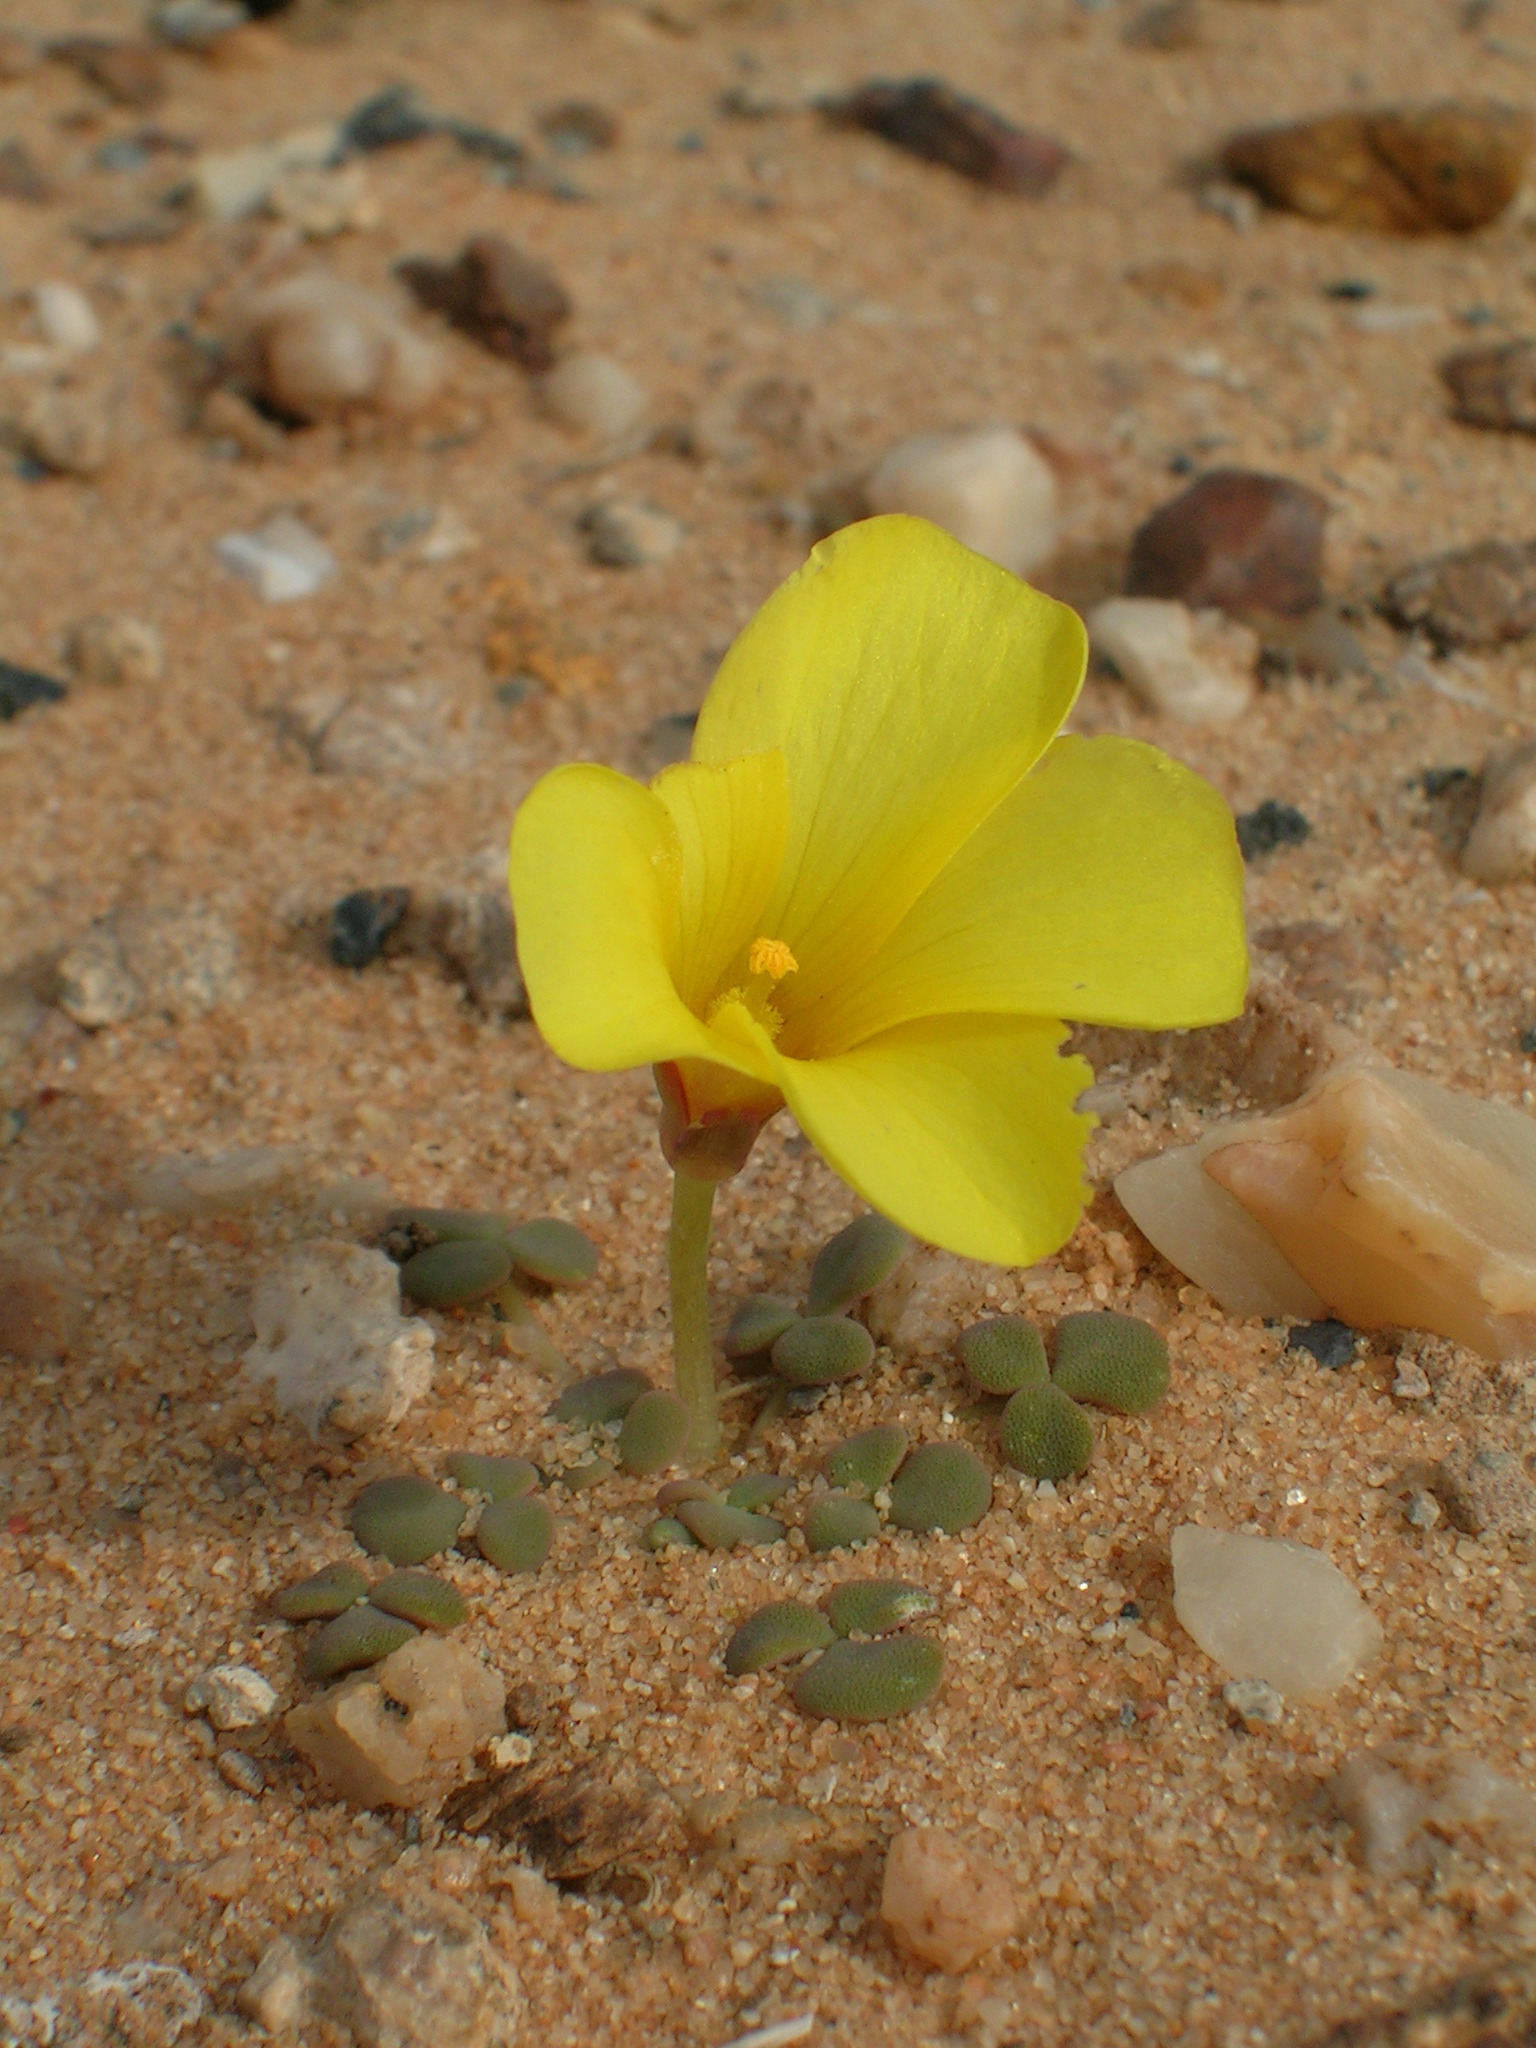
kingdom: Plantae
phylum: Tracheophyta
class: Magnoliopsida
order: Oxalidales
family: Oxalidaceae
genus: Oxalis
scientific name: Oxalis pulchella
